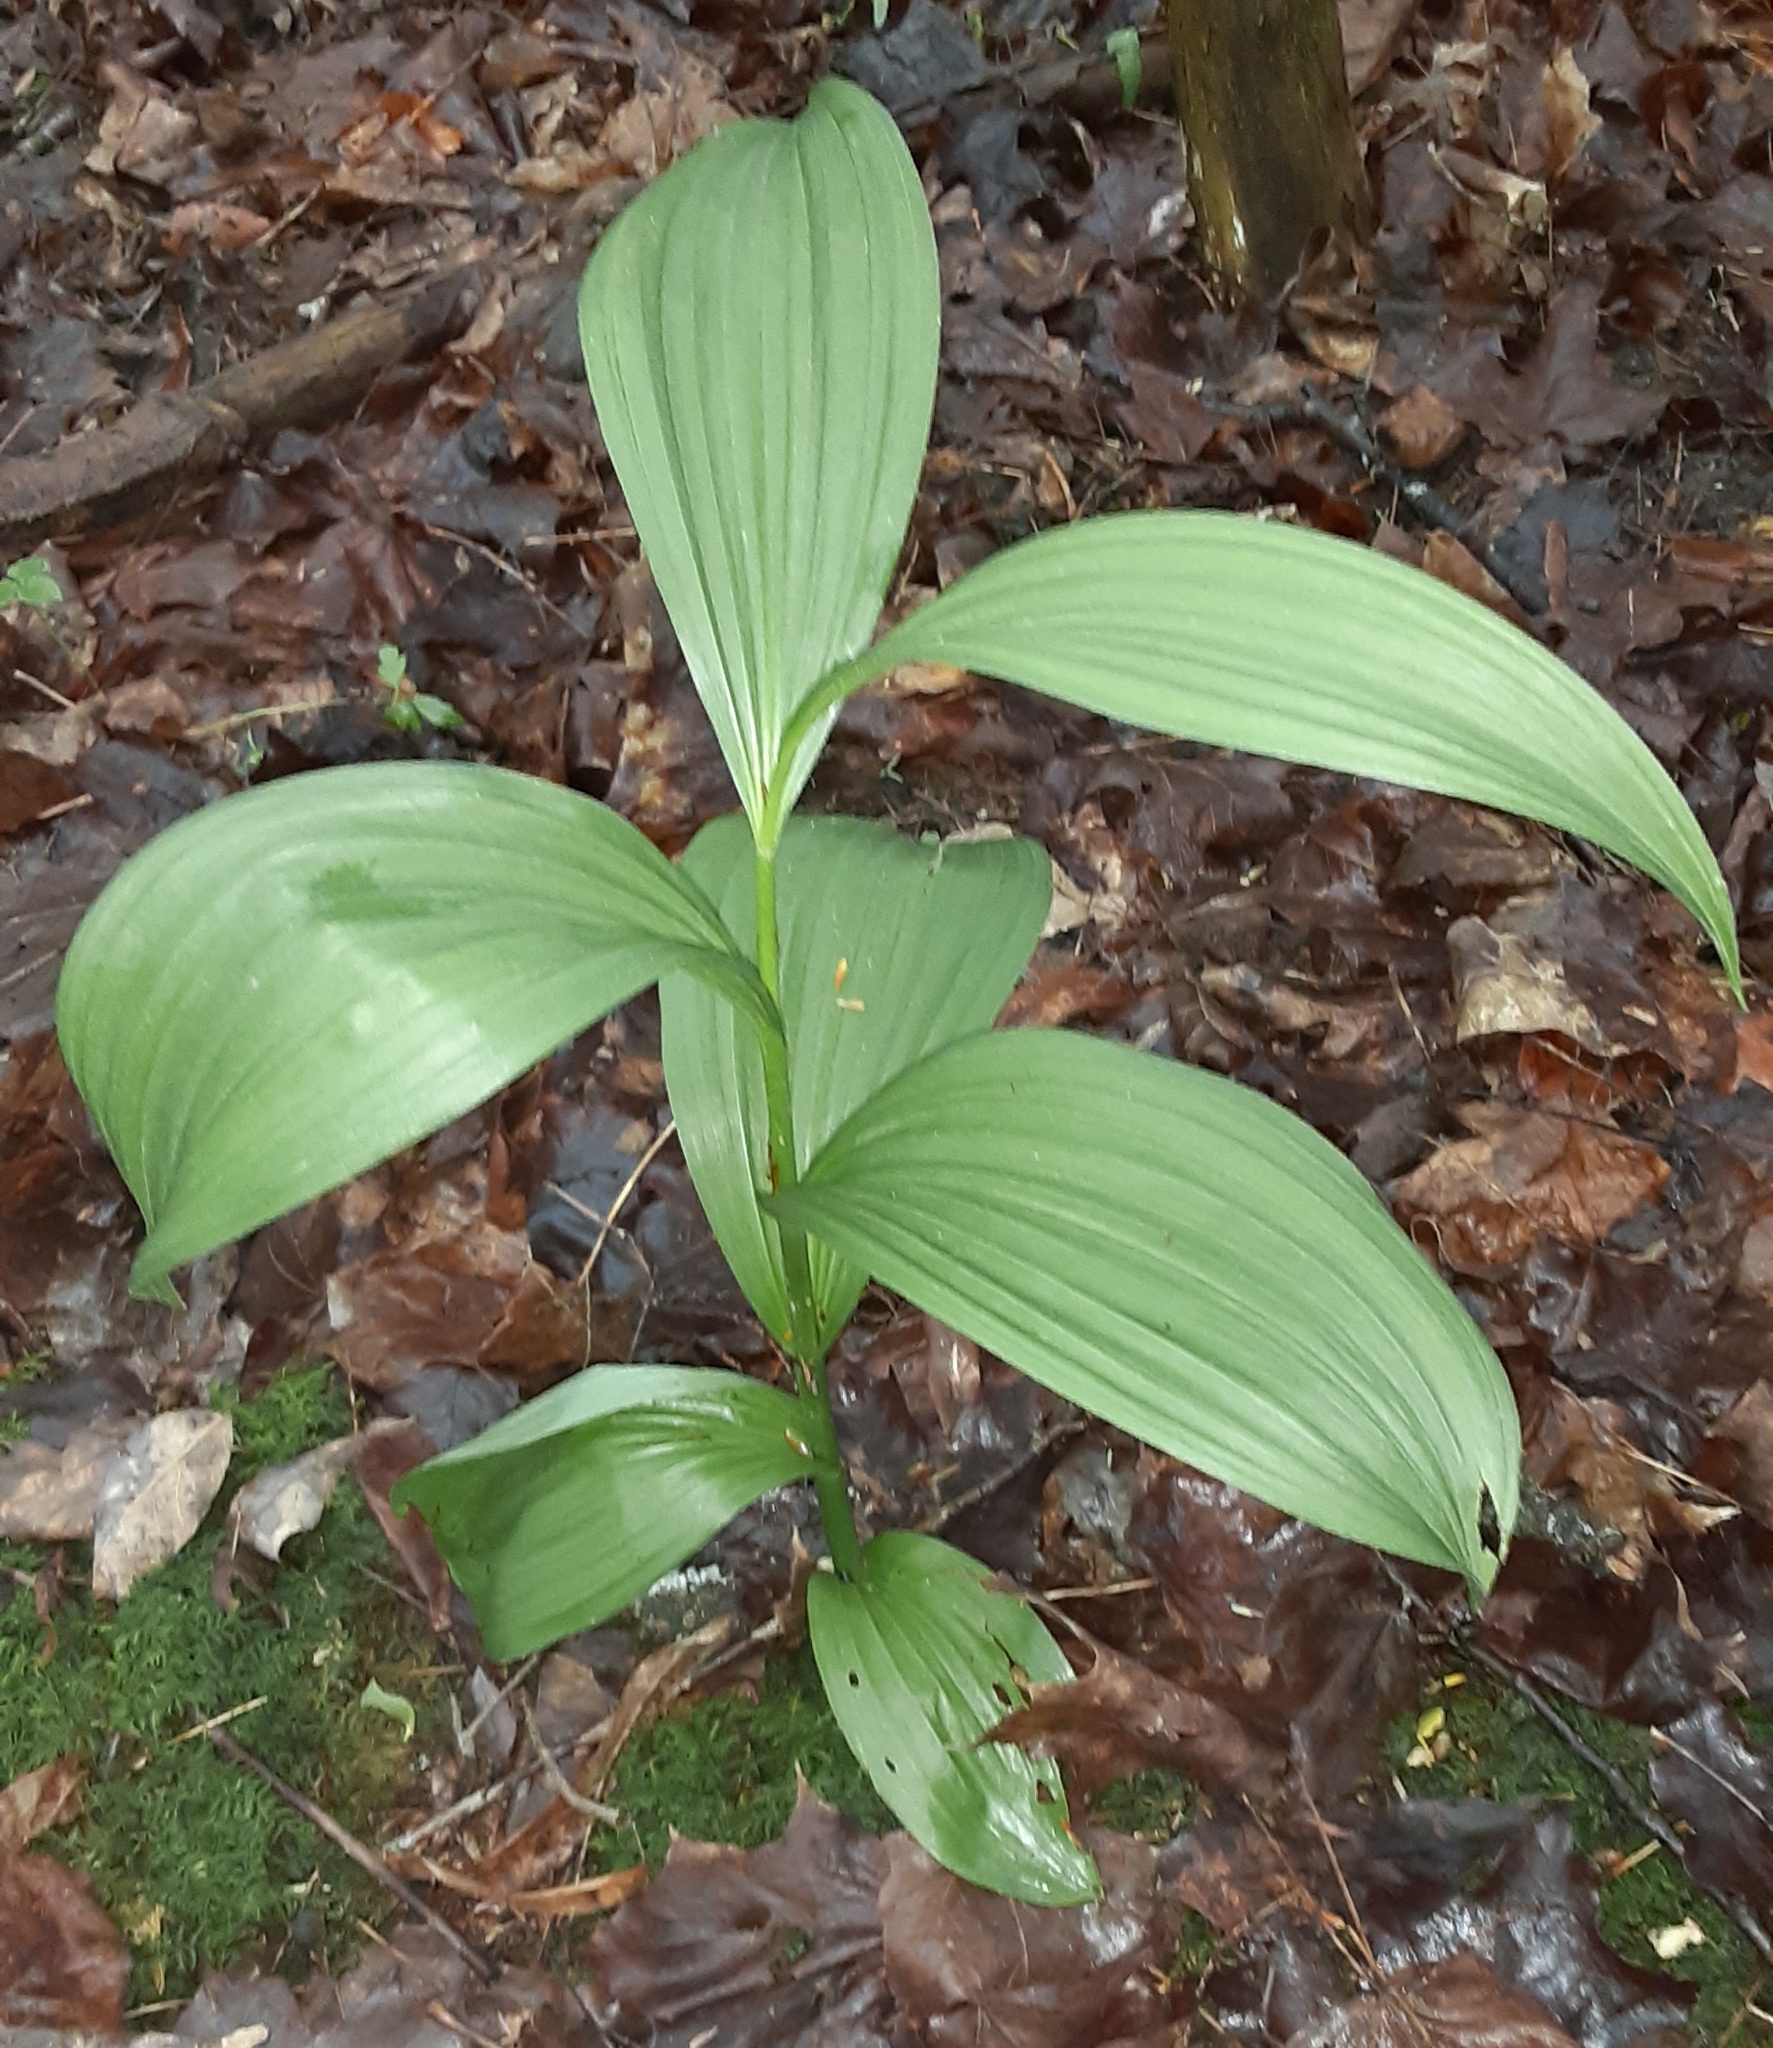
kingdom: Plantae
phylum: Tracheophyta
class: Liliopsida
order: Liliales
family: Melanthiaceae
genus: Veratrum
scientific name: Veratrum viride
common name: American false hellebore
